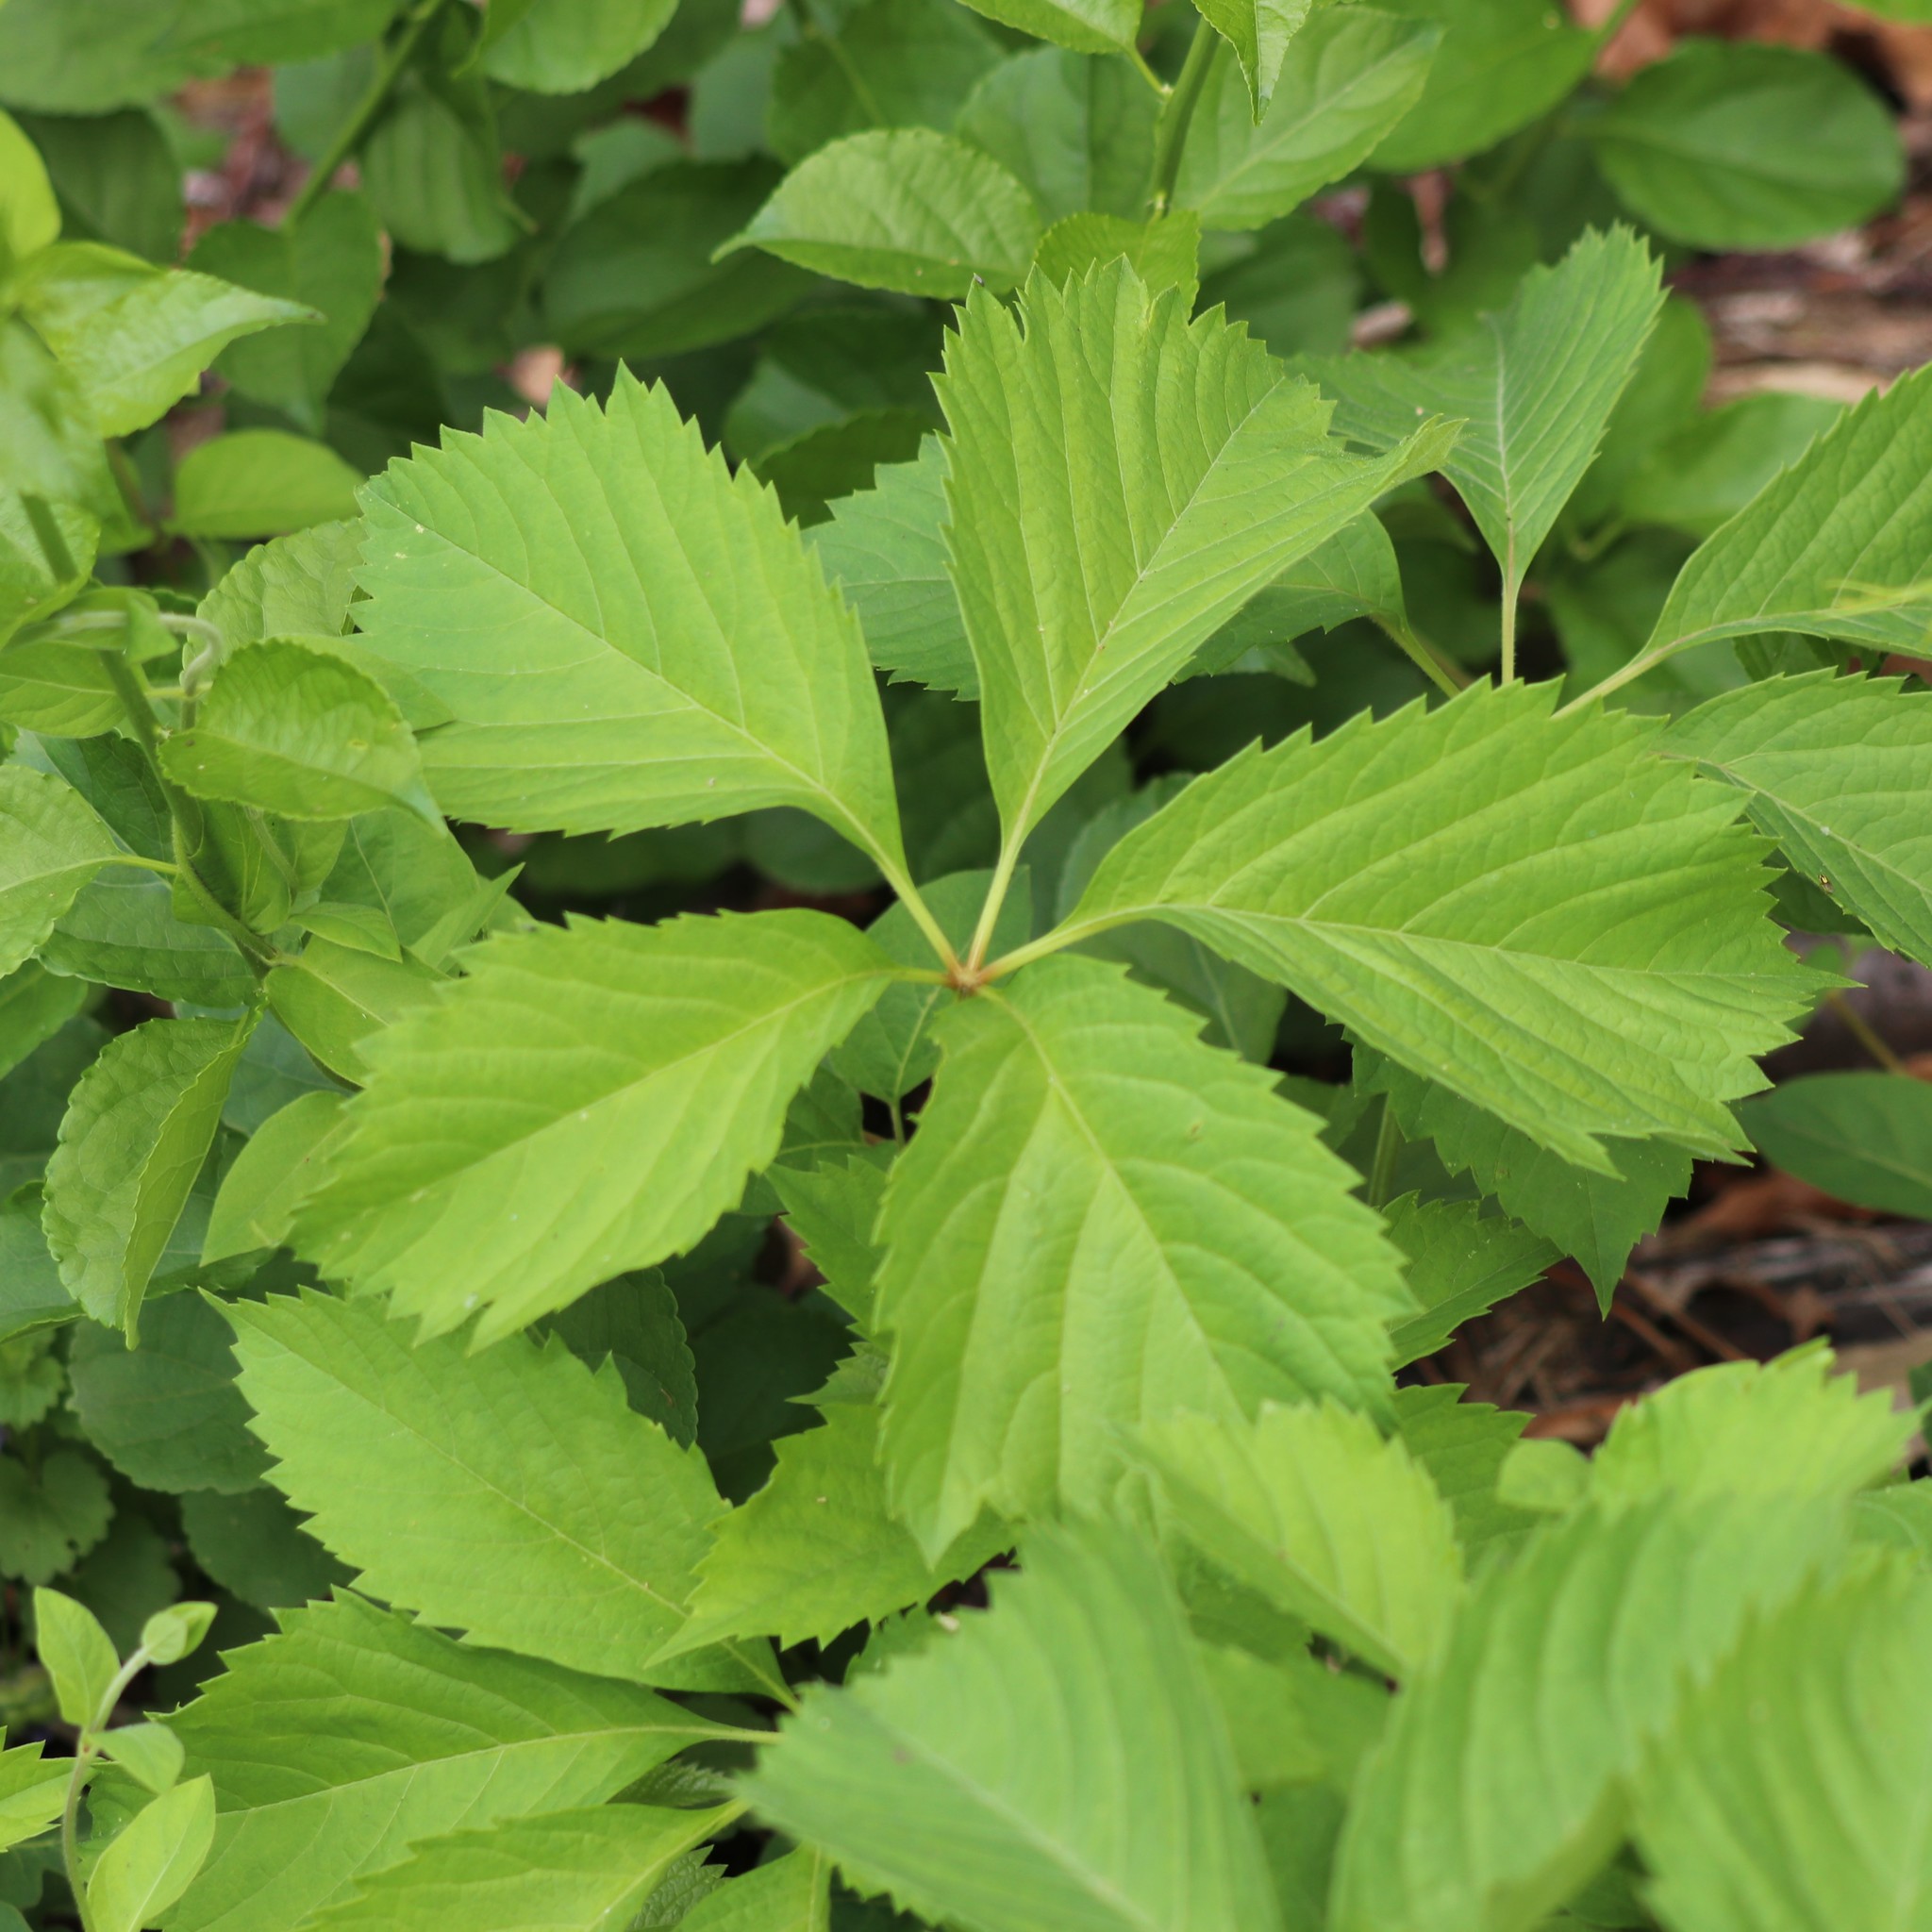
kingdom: Plantae
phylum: Tracheophyta
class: Magnoliopsida
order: Vitales
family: Vitaceae
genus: Parthenocissus
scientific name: Parthenocissus inserta
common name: False virginia-creeper
